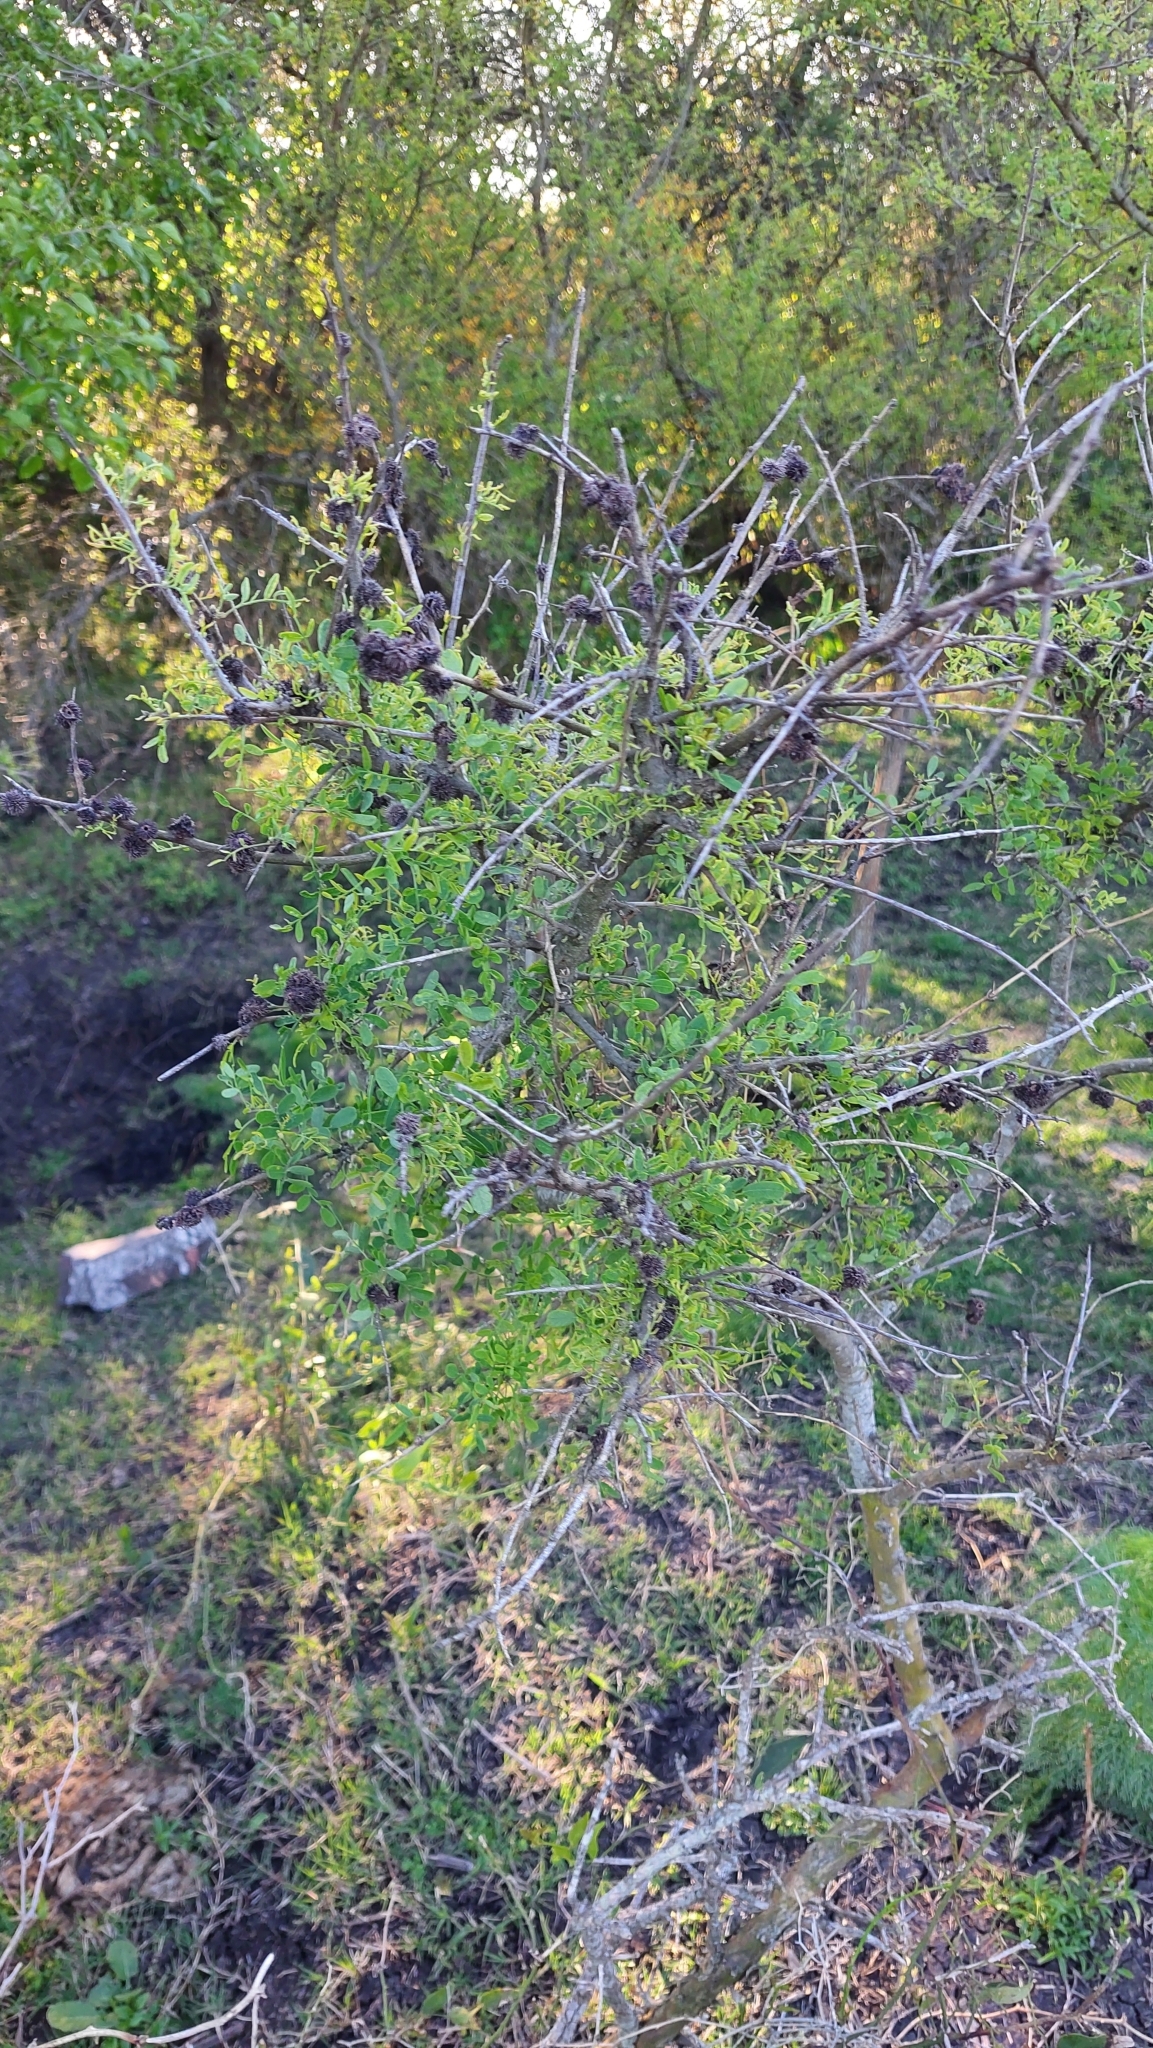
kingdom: Plantae
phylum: Tracheophyta
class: Magnoliopsida
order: Fabales
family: Fabaceae
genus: Geoffroea
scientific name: Geoffroea decorticans
